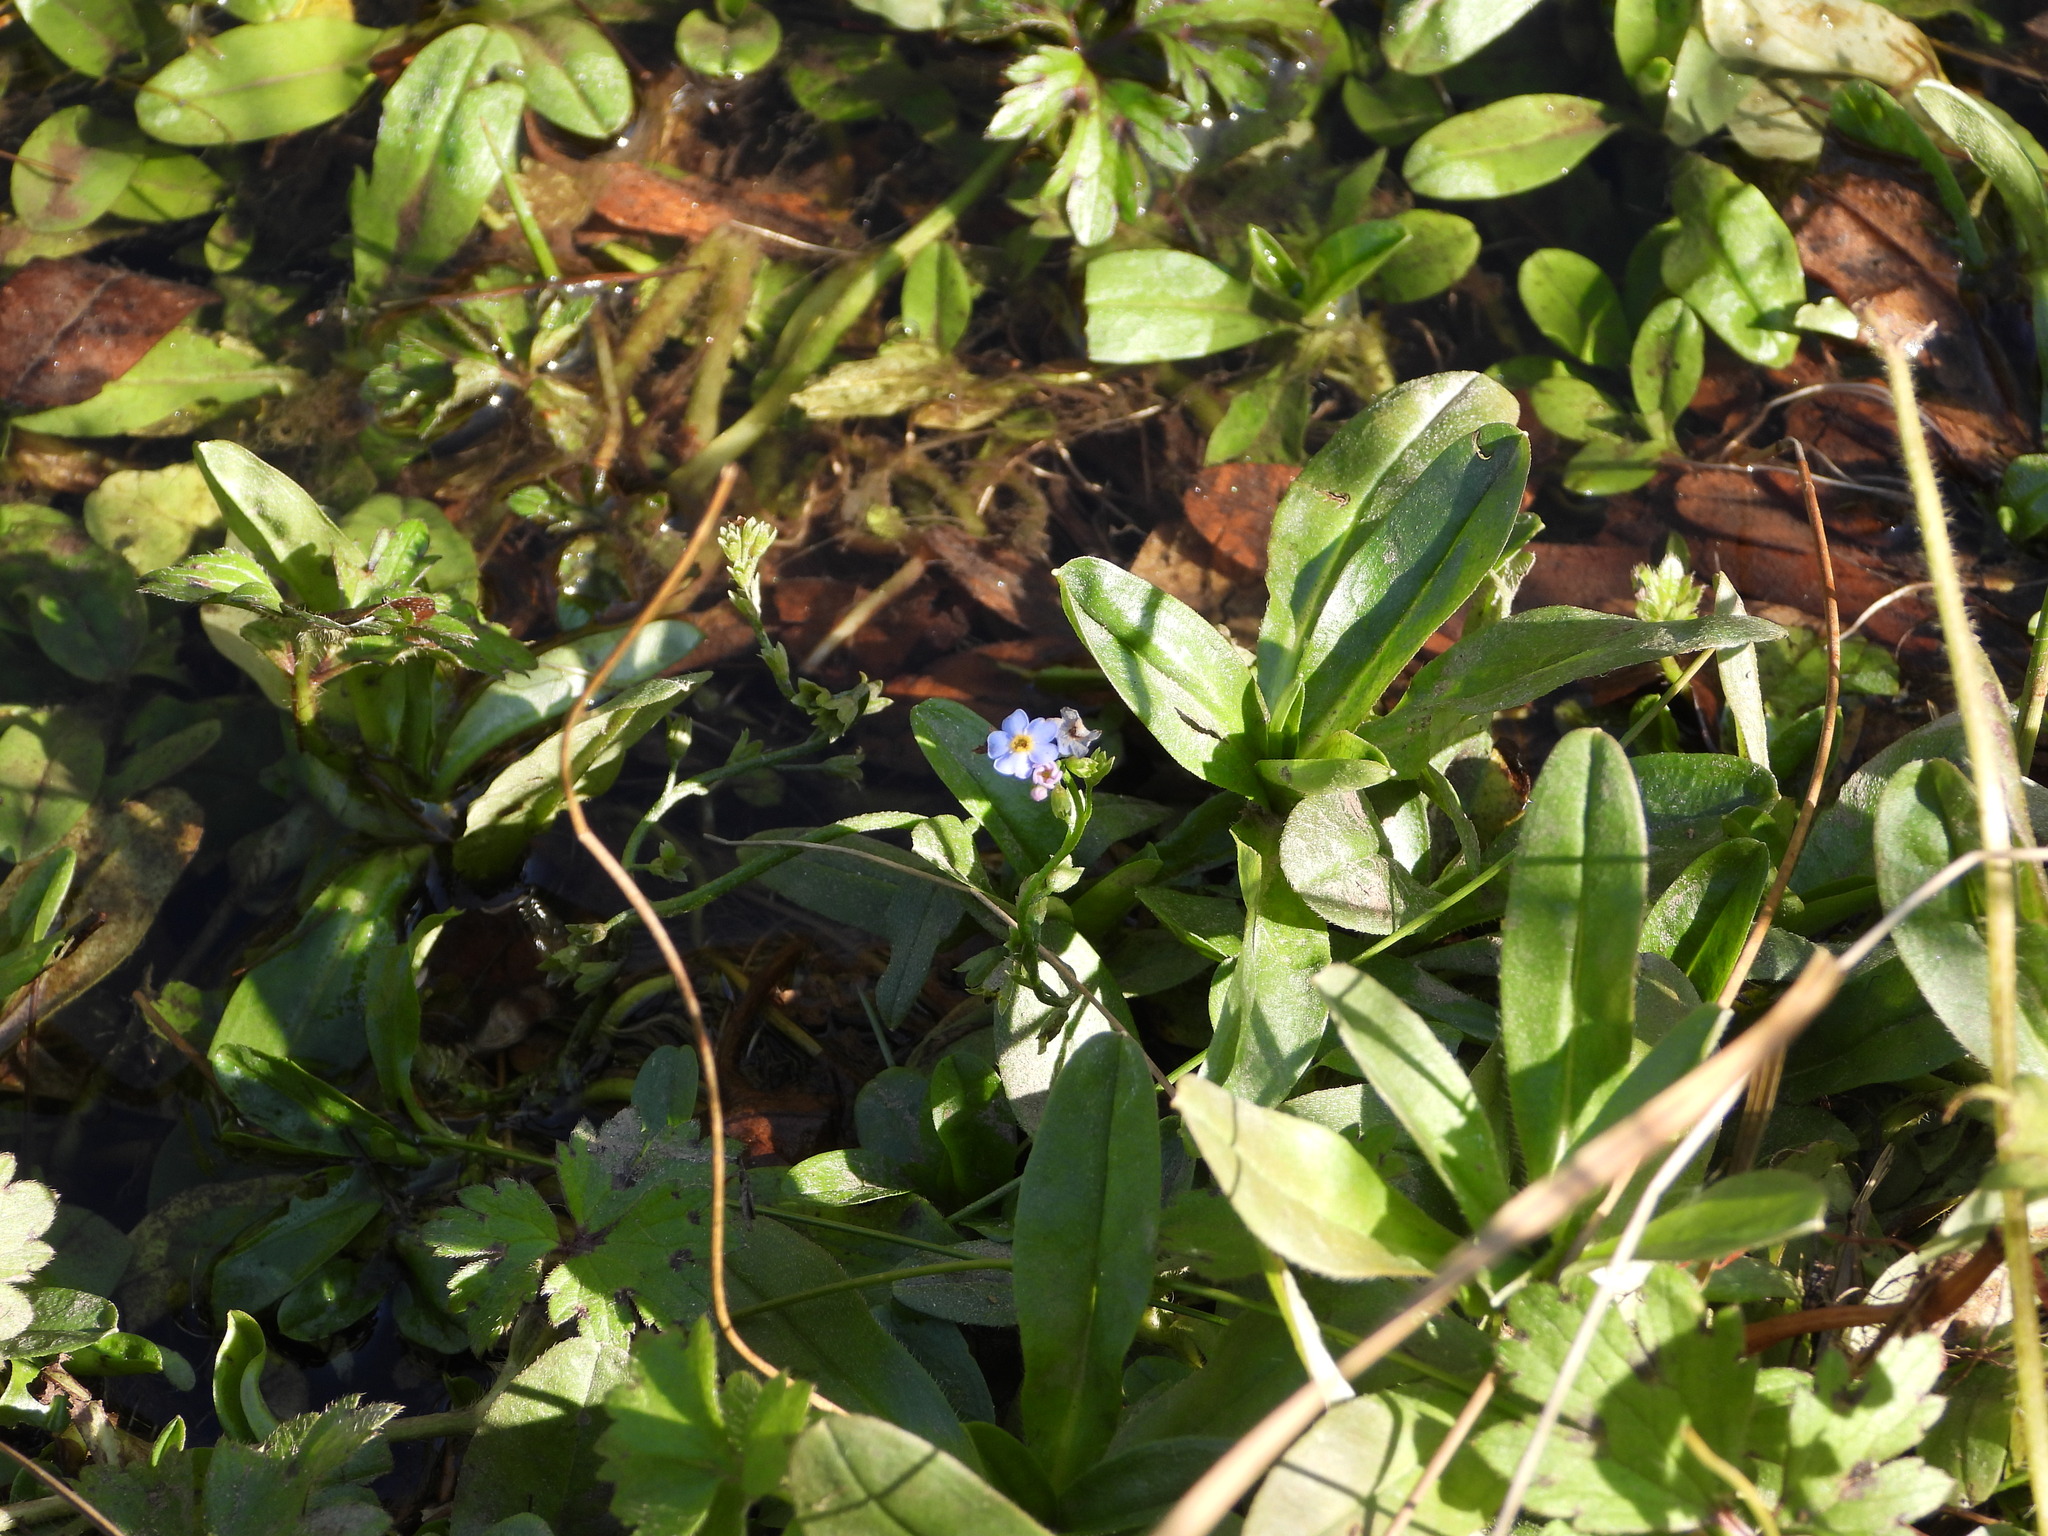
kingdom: Plantae
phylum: Tracheophyta
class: Magnoliopsida
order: Boraginales
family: Boraginaceae
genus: Myosotis
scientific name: Myosotis scorpioides
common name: Water forget-me-not
